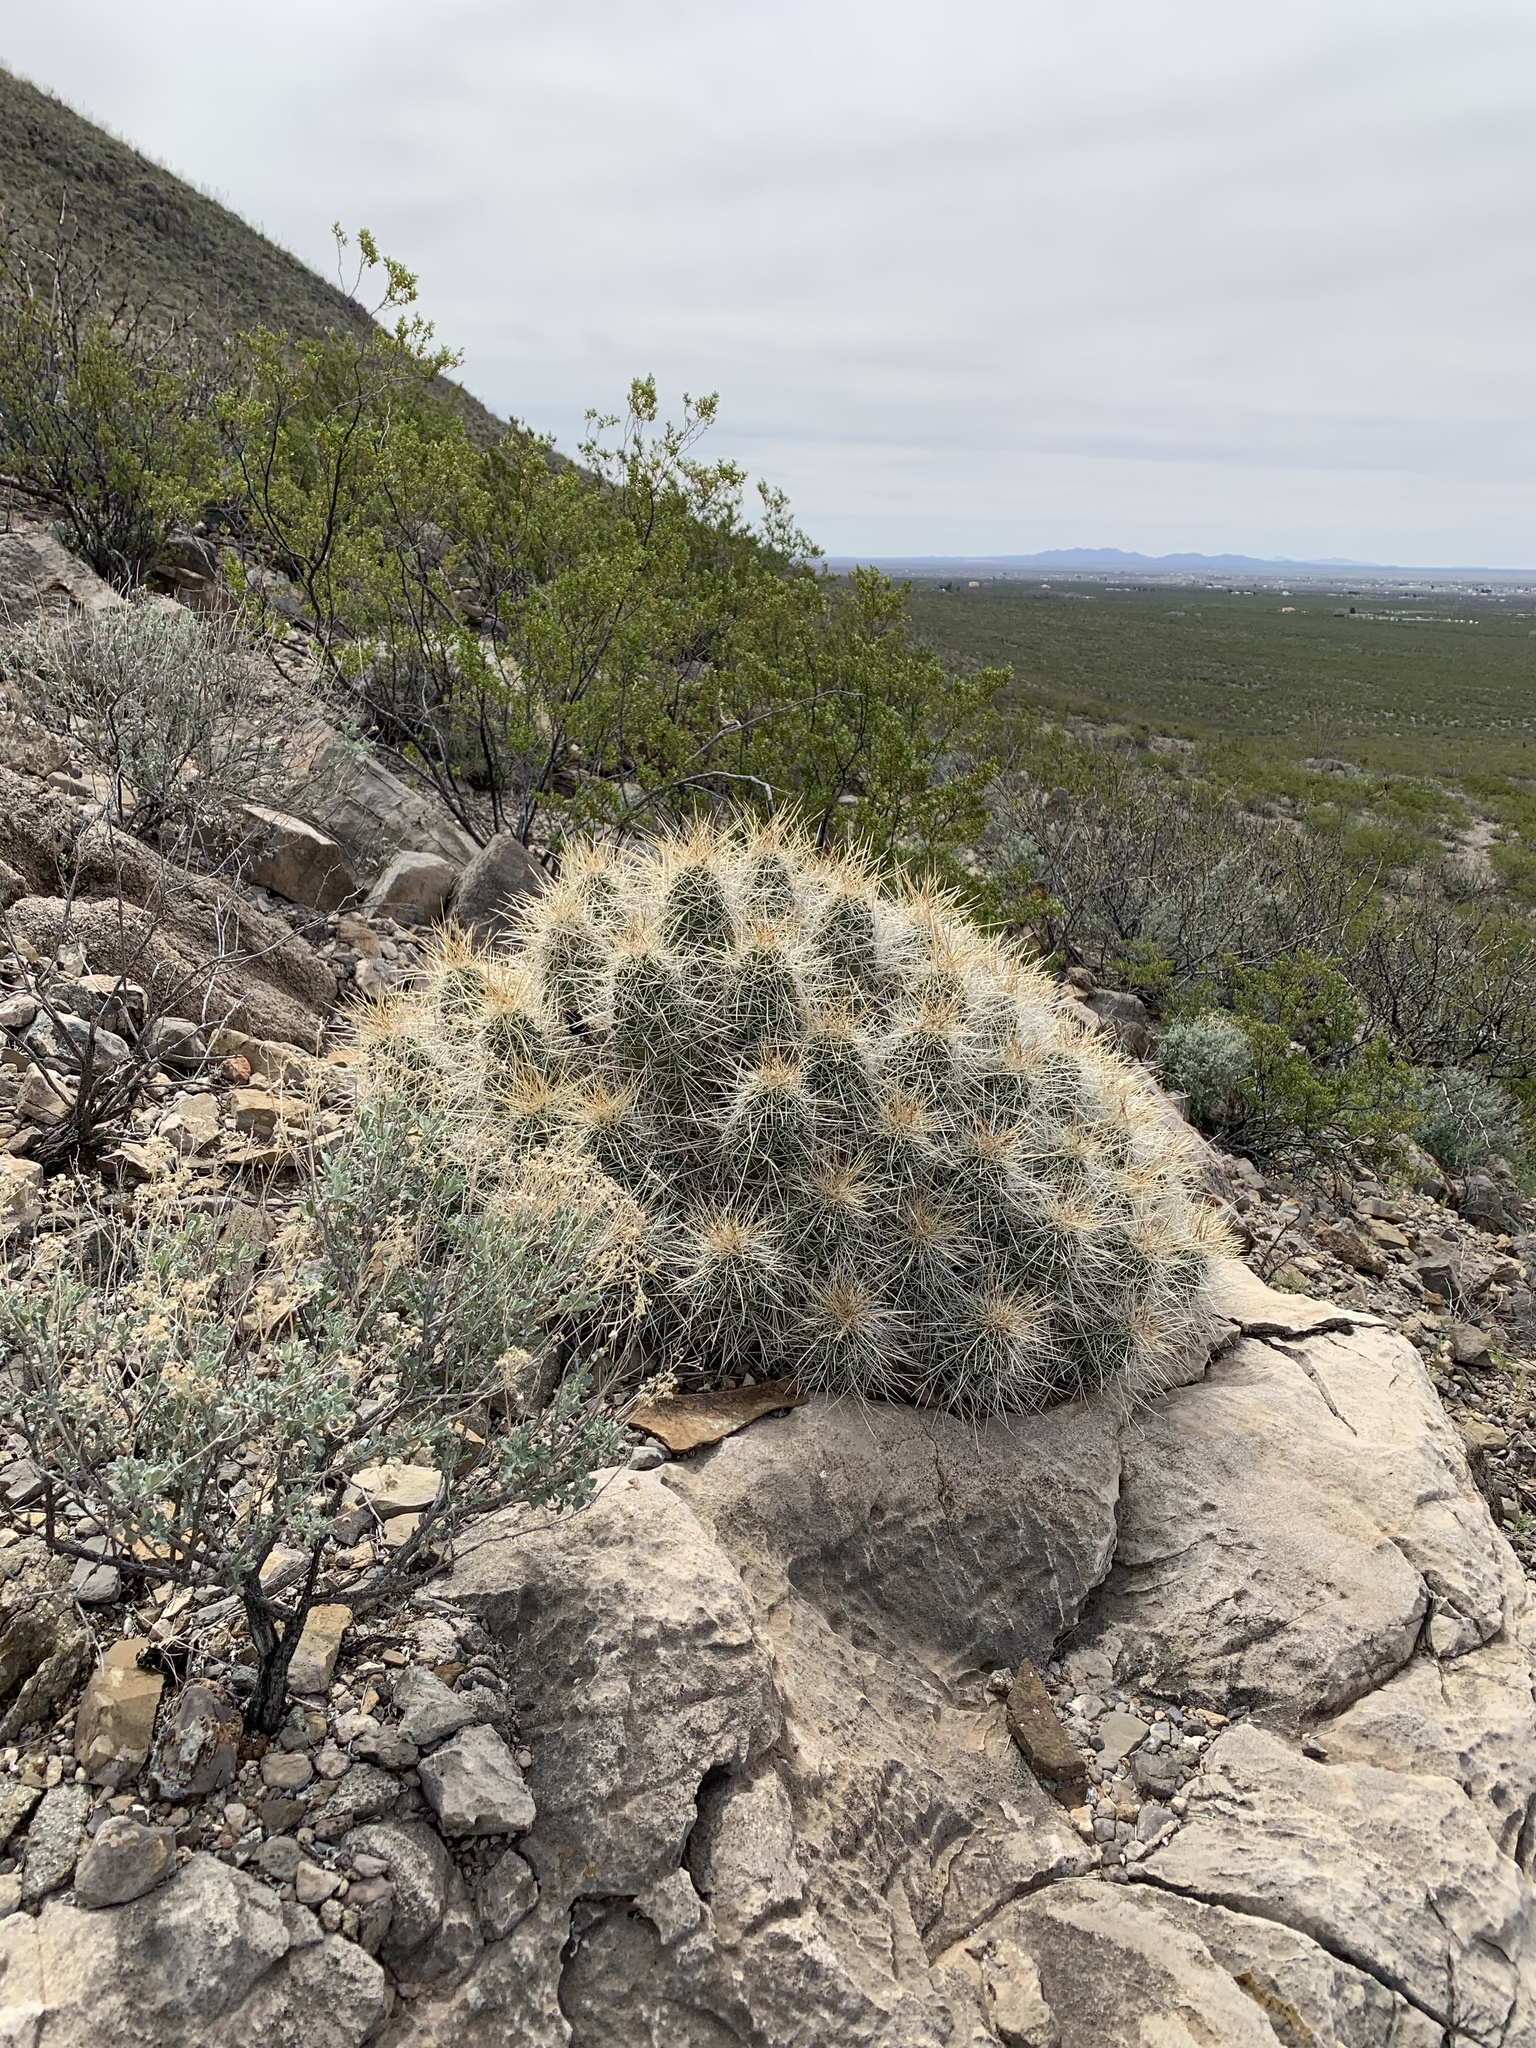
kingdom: Plantae
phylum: Tracheophyta
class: Magnoliopsida
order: Caryophyllales
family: Cactaceae
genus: Echinocereus
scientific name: Echinocereus stramineus
